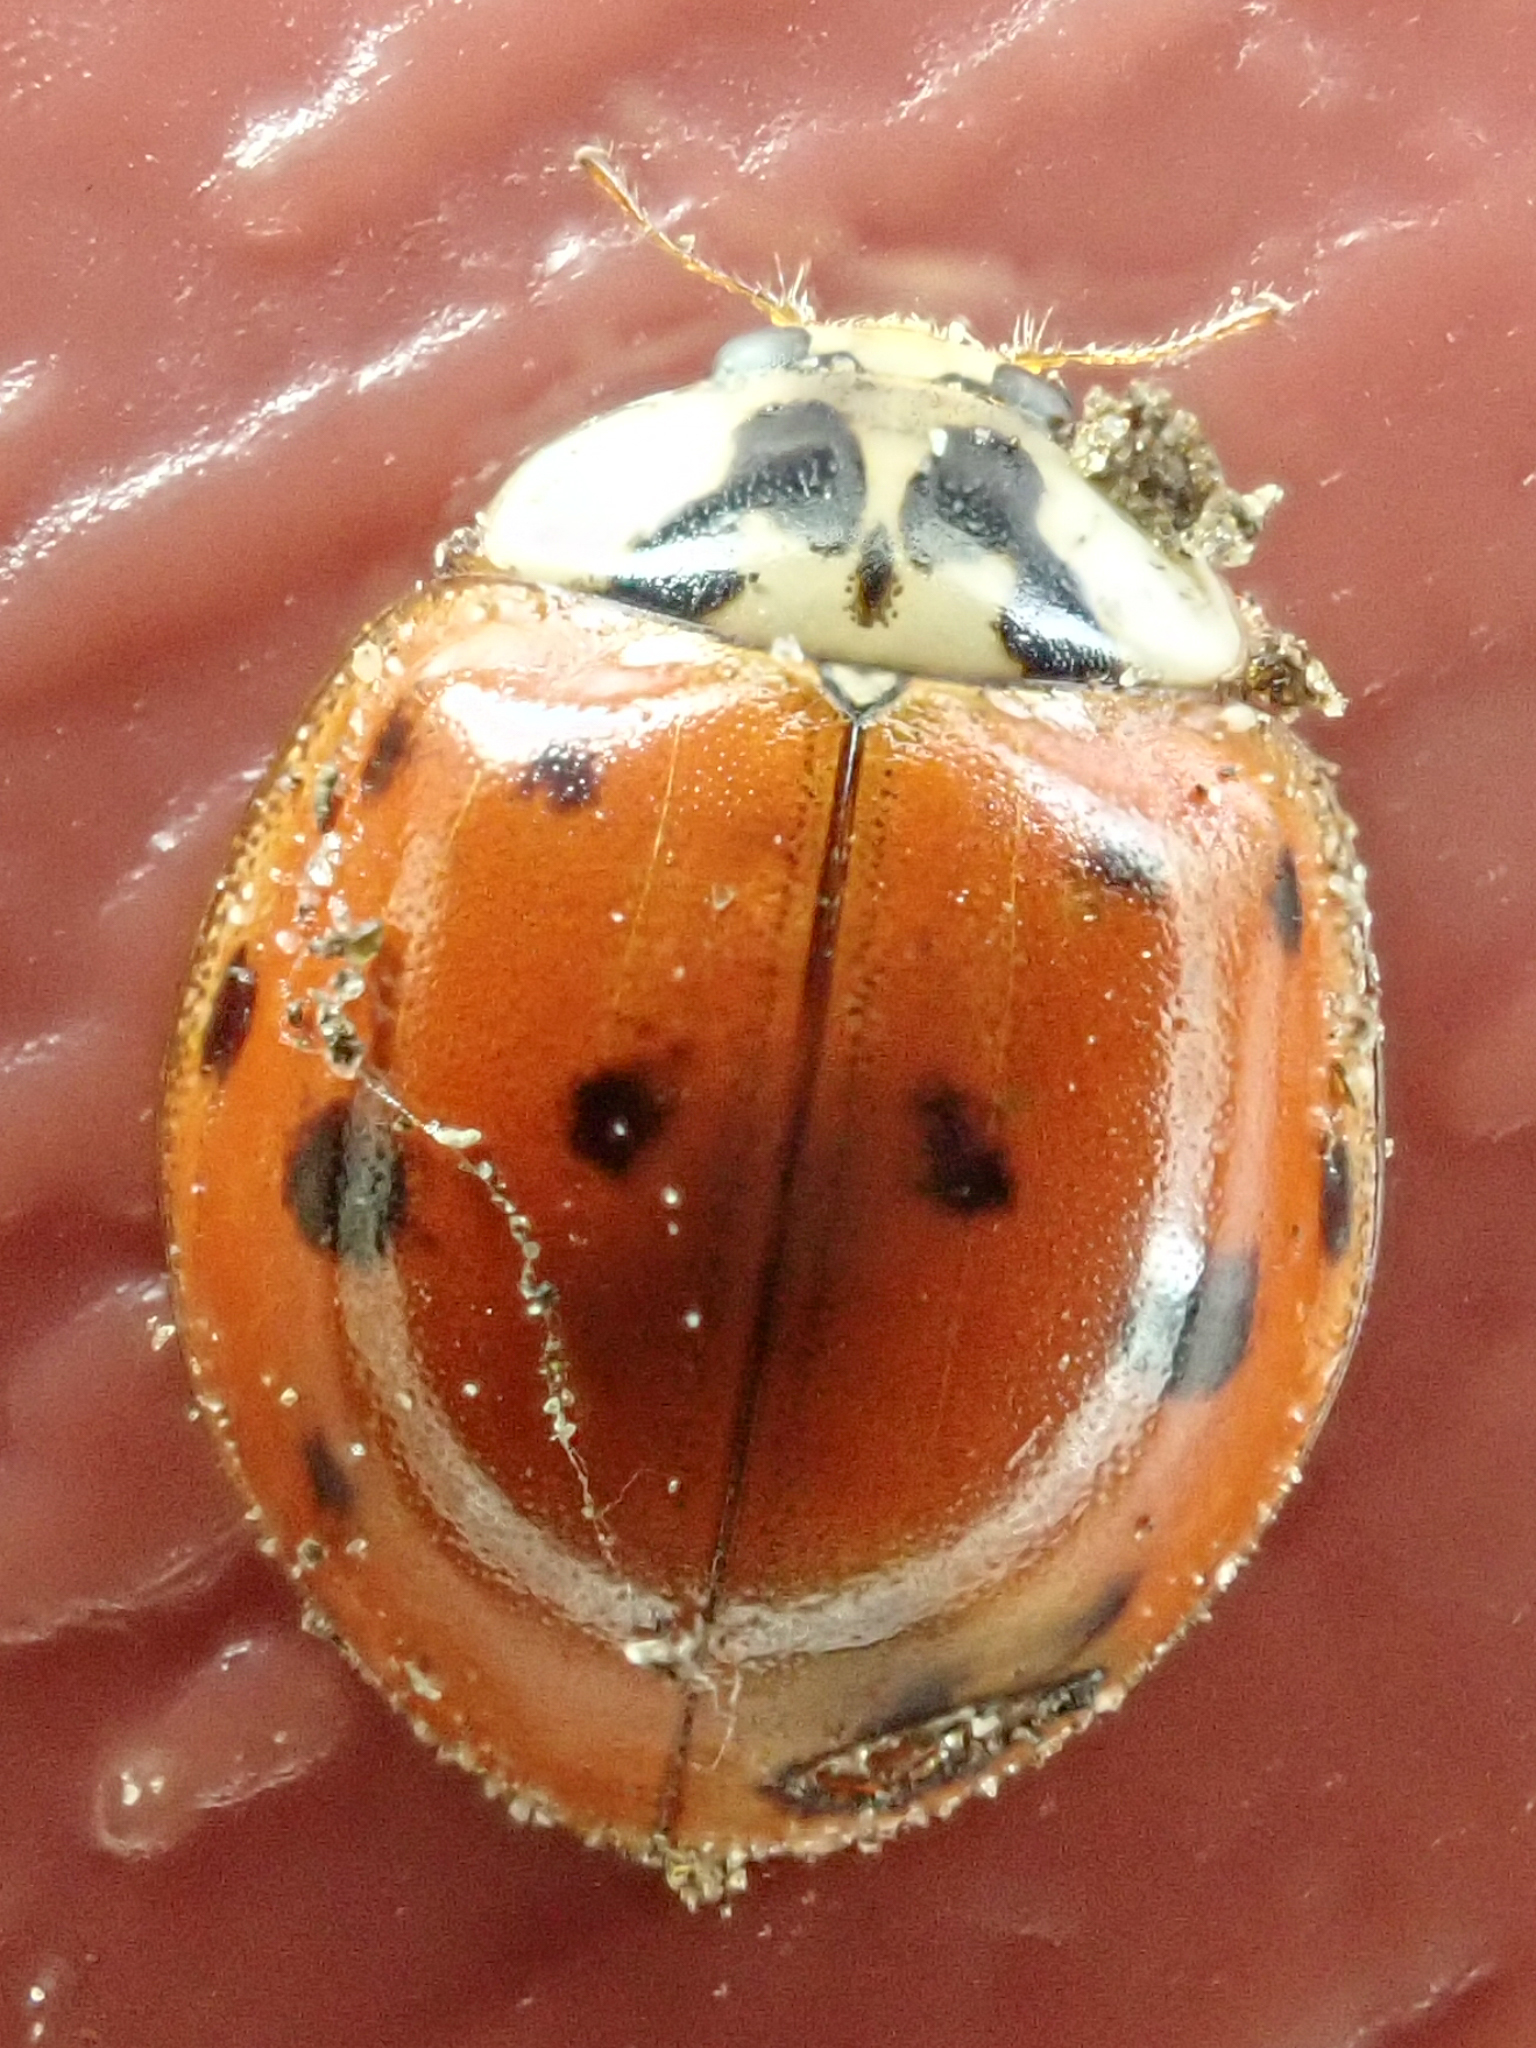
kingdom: Animalia
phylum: Arthropoda
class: Insecta
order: Coleoptera
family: Coccinellidae
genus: Harmonia
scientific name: Harmonia axyridis
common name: Harlequin ladybird
